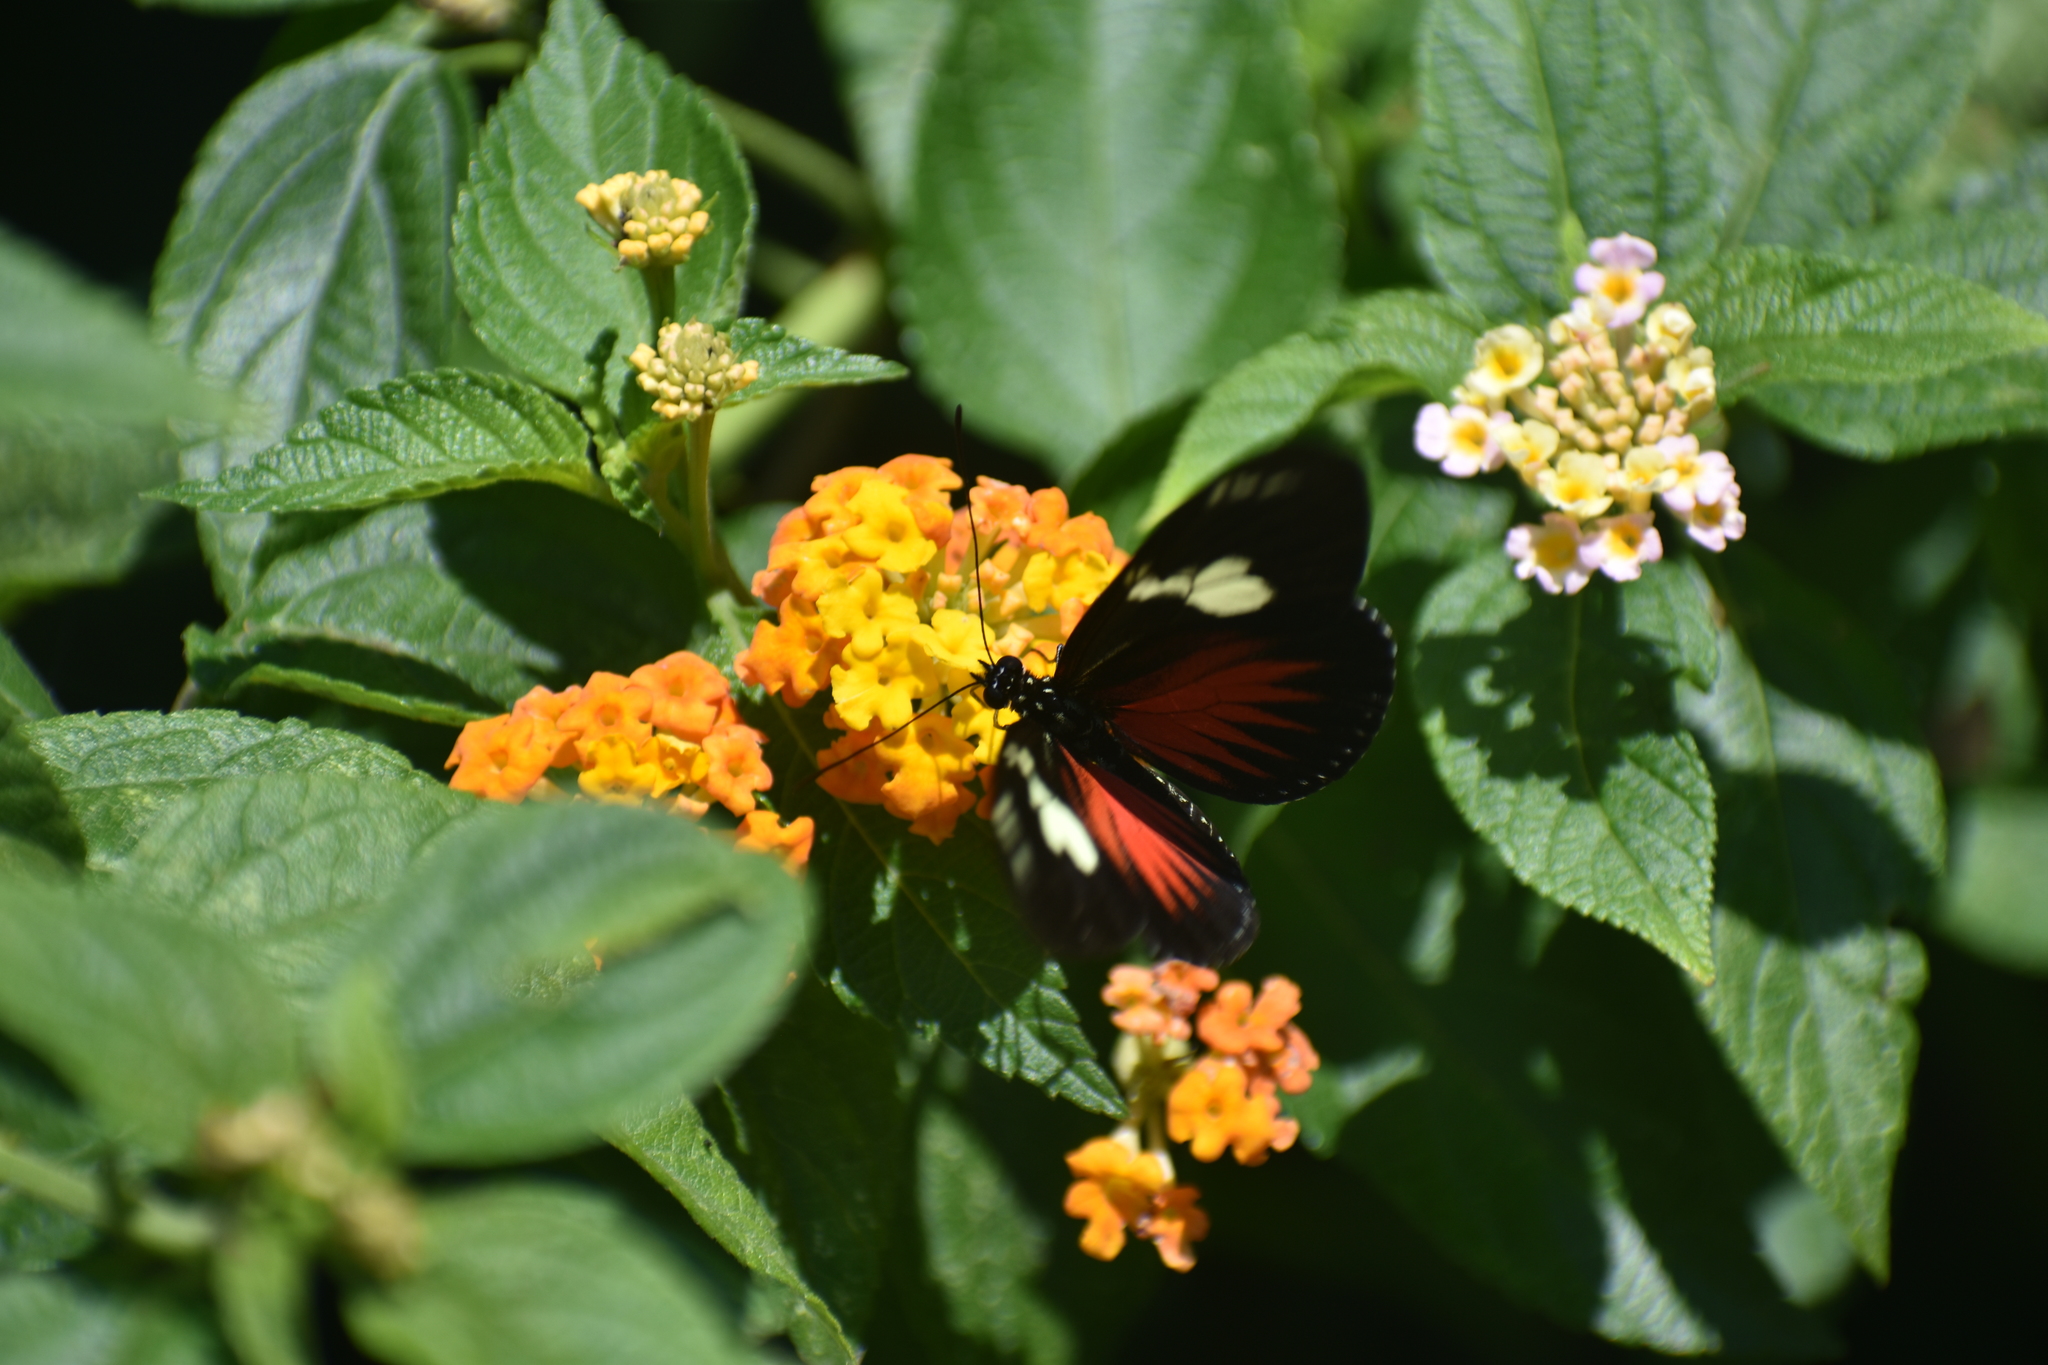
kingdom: Animalia
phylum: Arthropoda
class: Insecta
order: Lepidoptera
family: Nymphalidae
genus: Heliconius
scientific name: Heliconius doris
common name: Doris longwing
